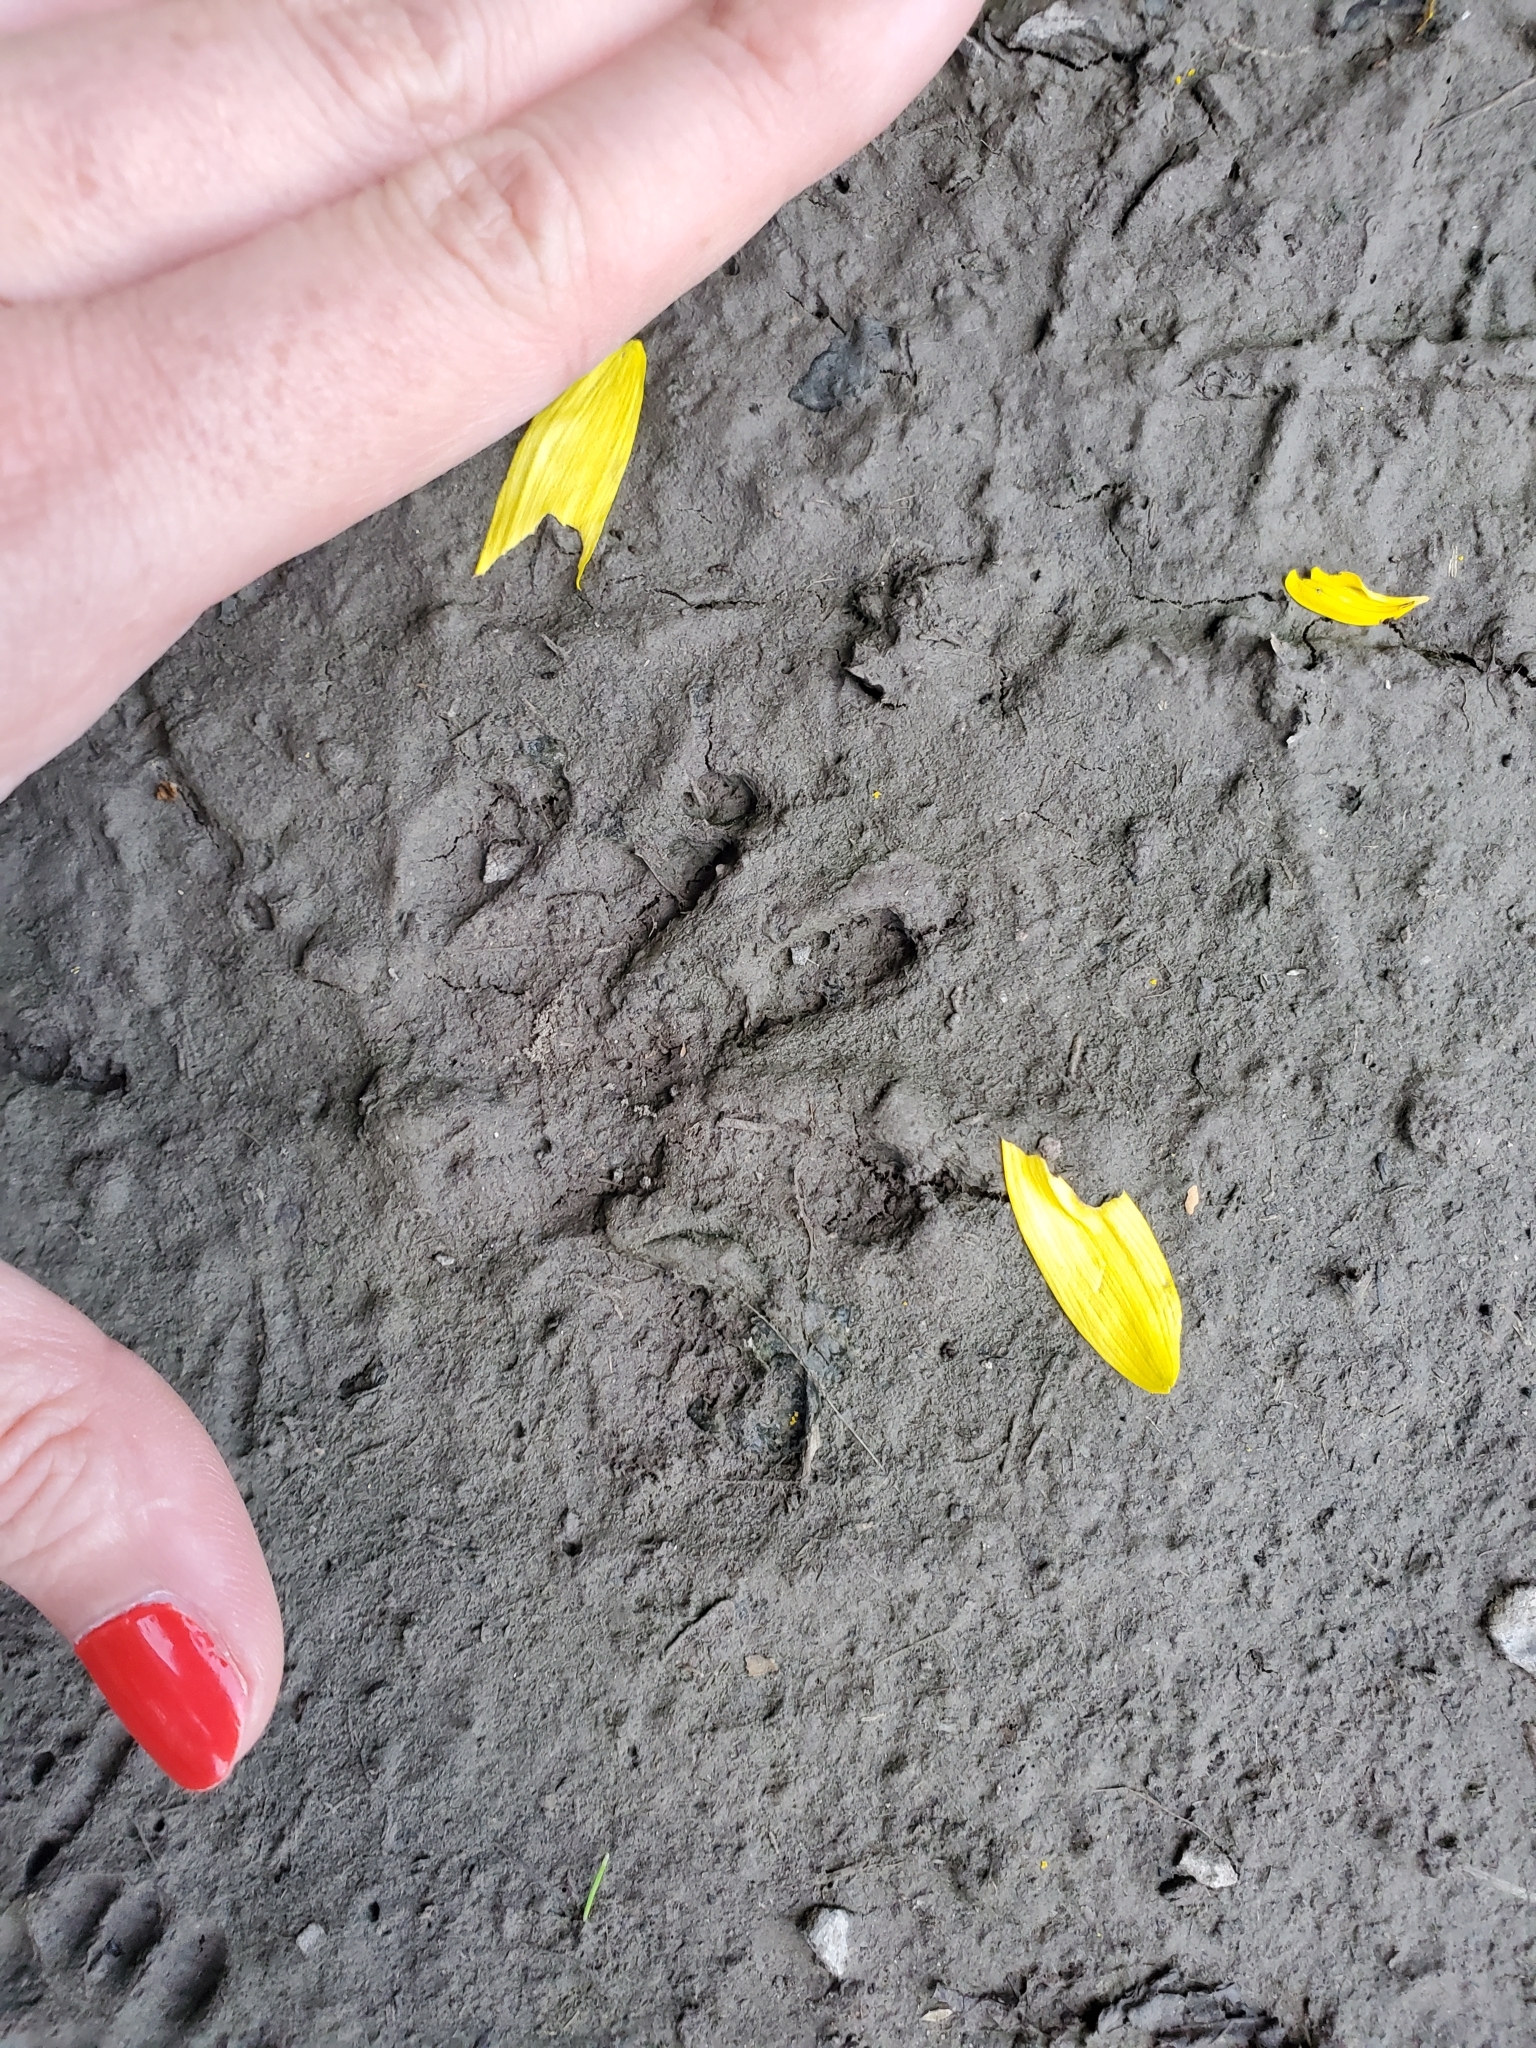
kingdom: Animalia
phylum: Chordata
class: Mammalia
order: Carnivora
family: Procyonidae
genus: Procyon
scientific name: Procyon lotor
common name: Raccoon
